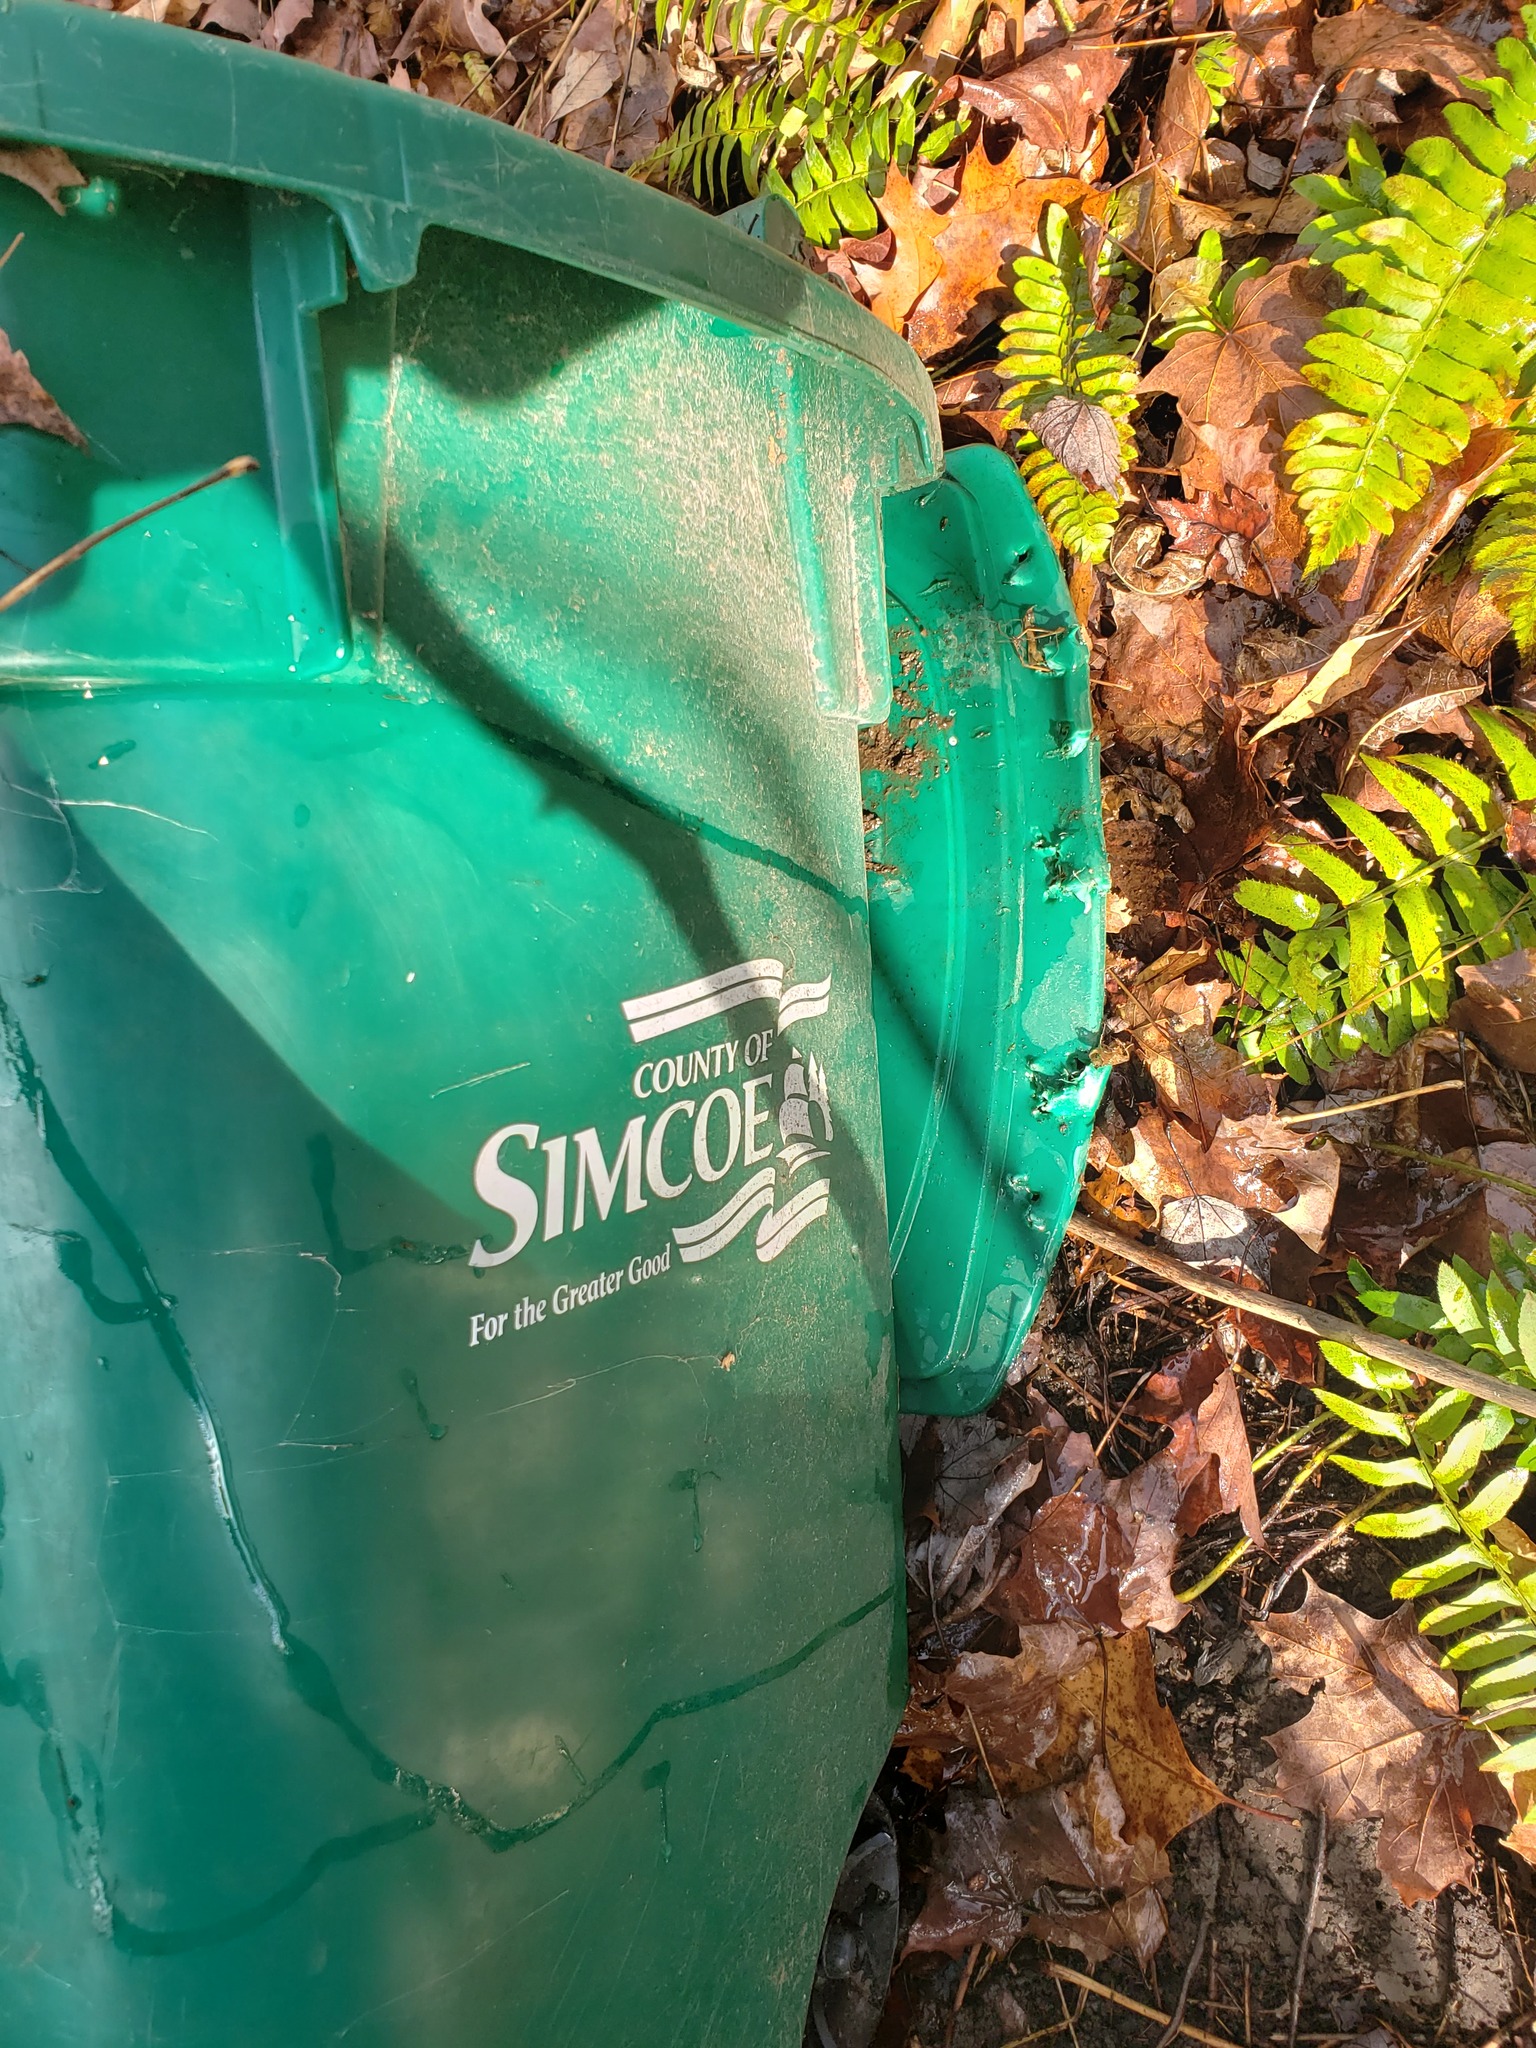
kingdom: Animalia
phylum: Chordata
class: Mammalia
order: Carnivora
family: Ursidae
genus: Ursus
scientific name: Ursus americanus
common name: American black bear
